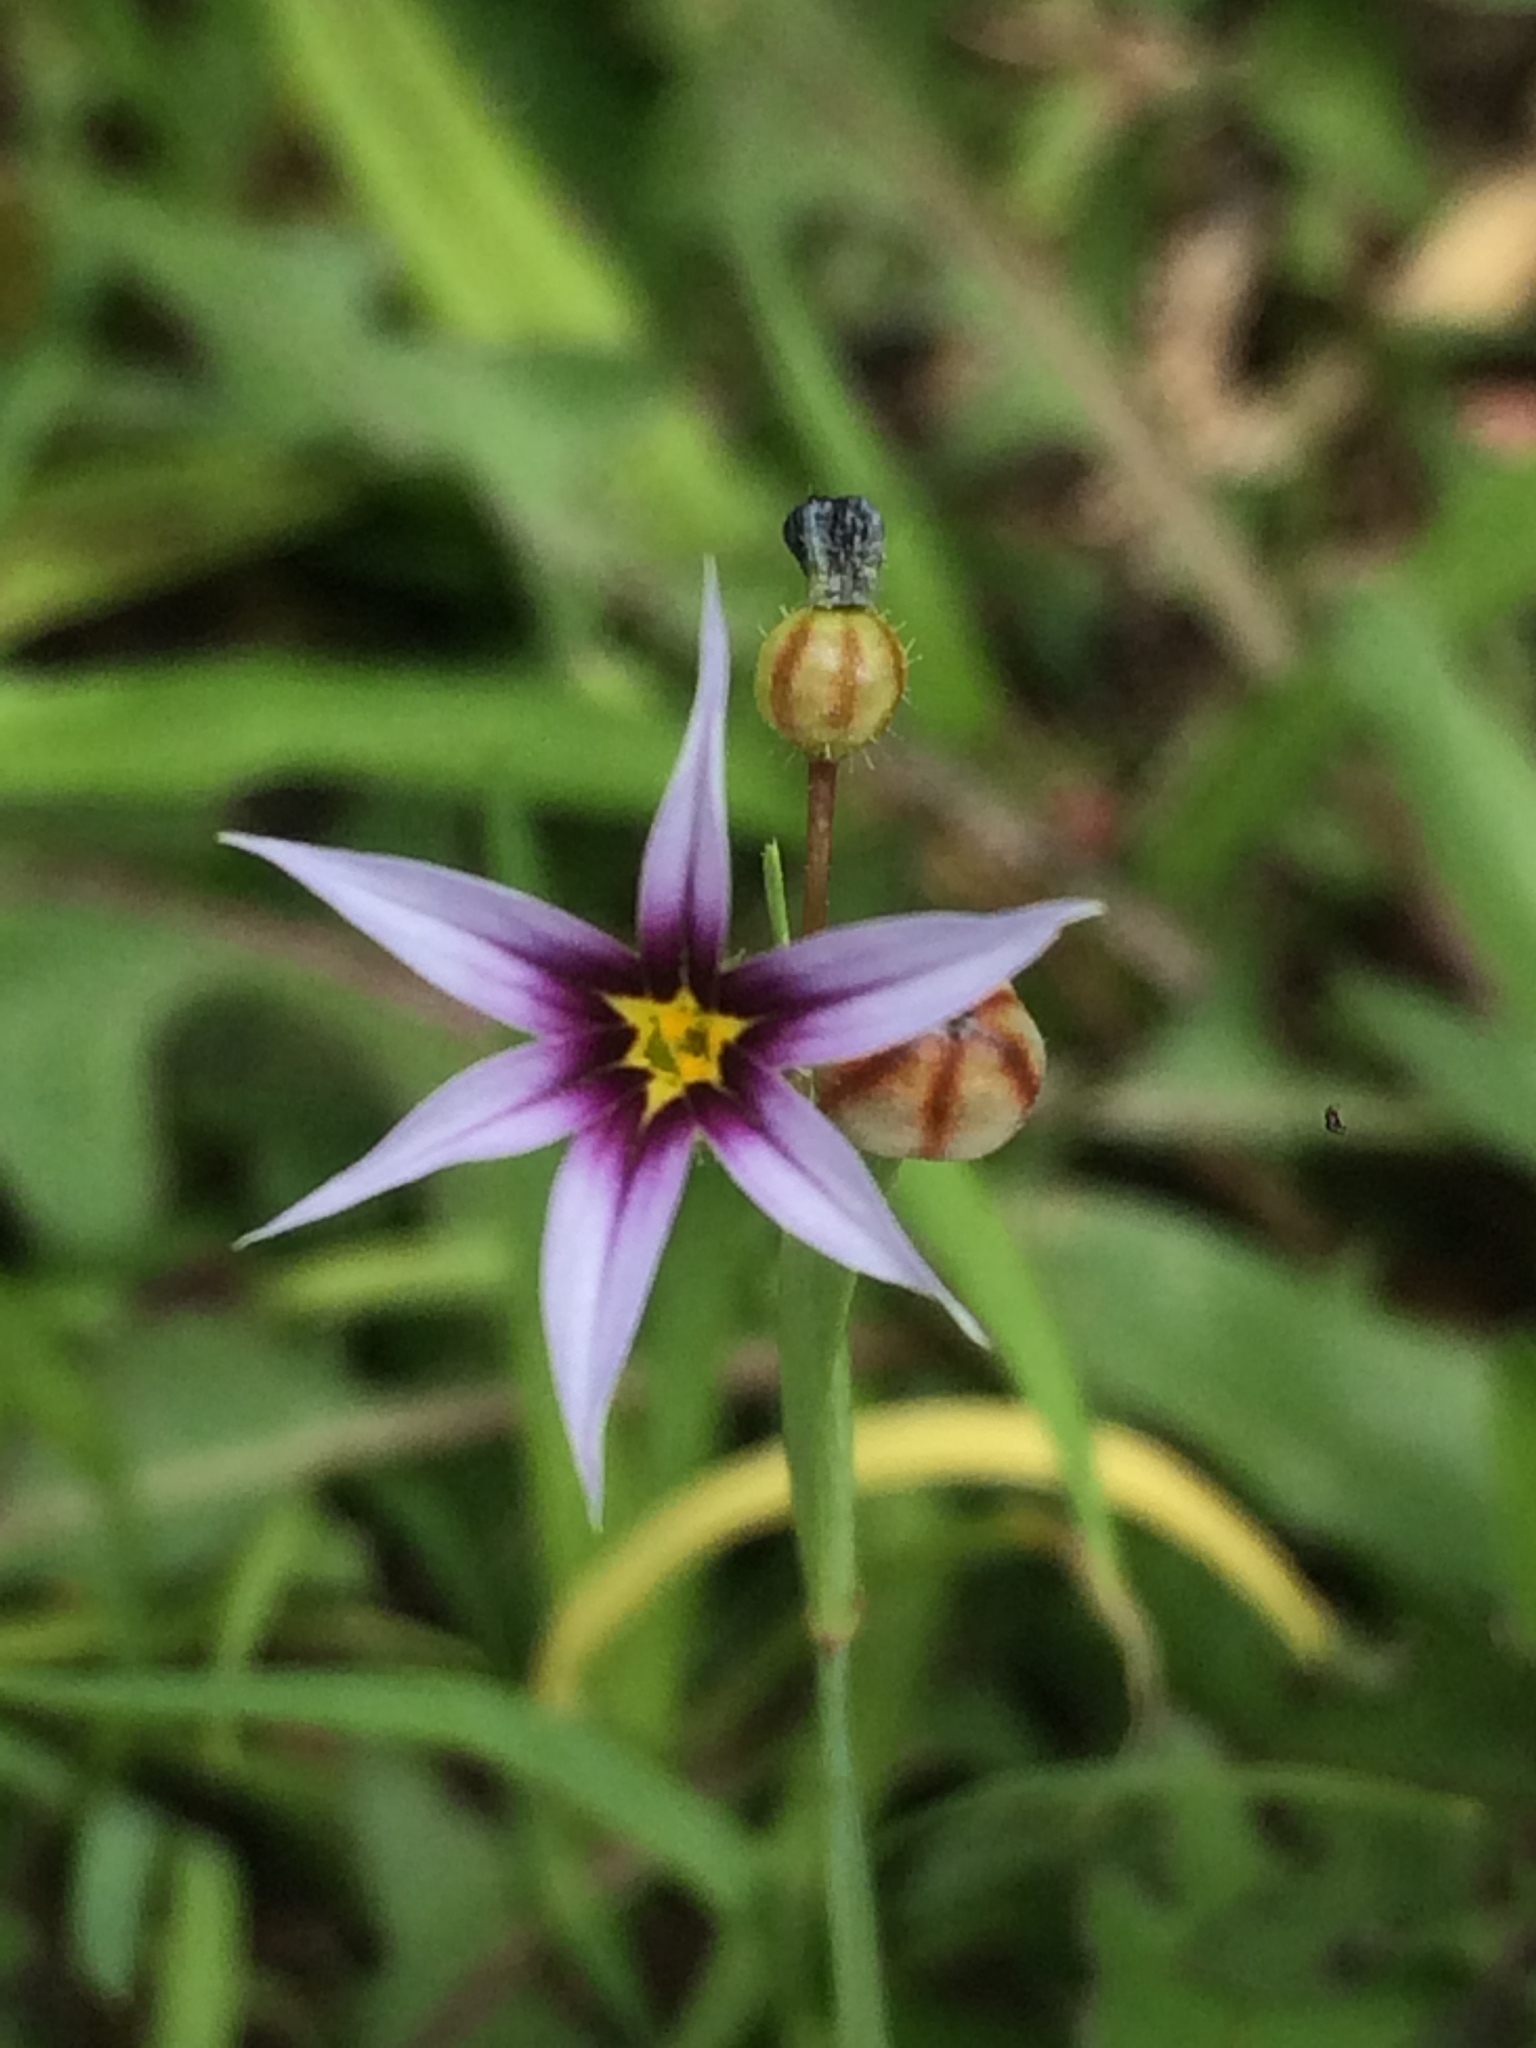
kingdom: Plantae
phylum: Tracheophyta
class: Liliopsida
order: Asparagales
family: Iridaceae
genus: Sisyrinchium
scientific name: Sisyrinchium micranthum
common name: Bermuda pigroot
